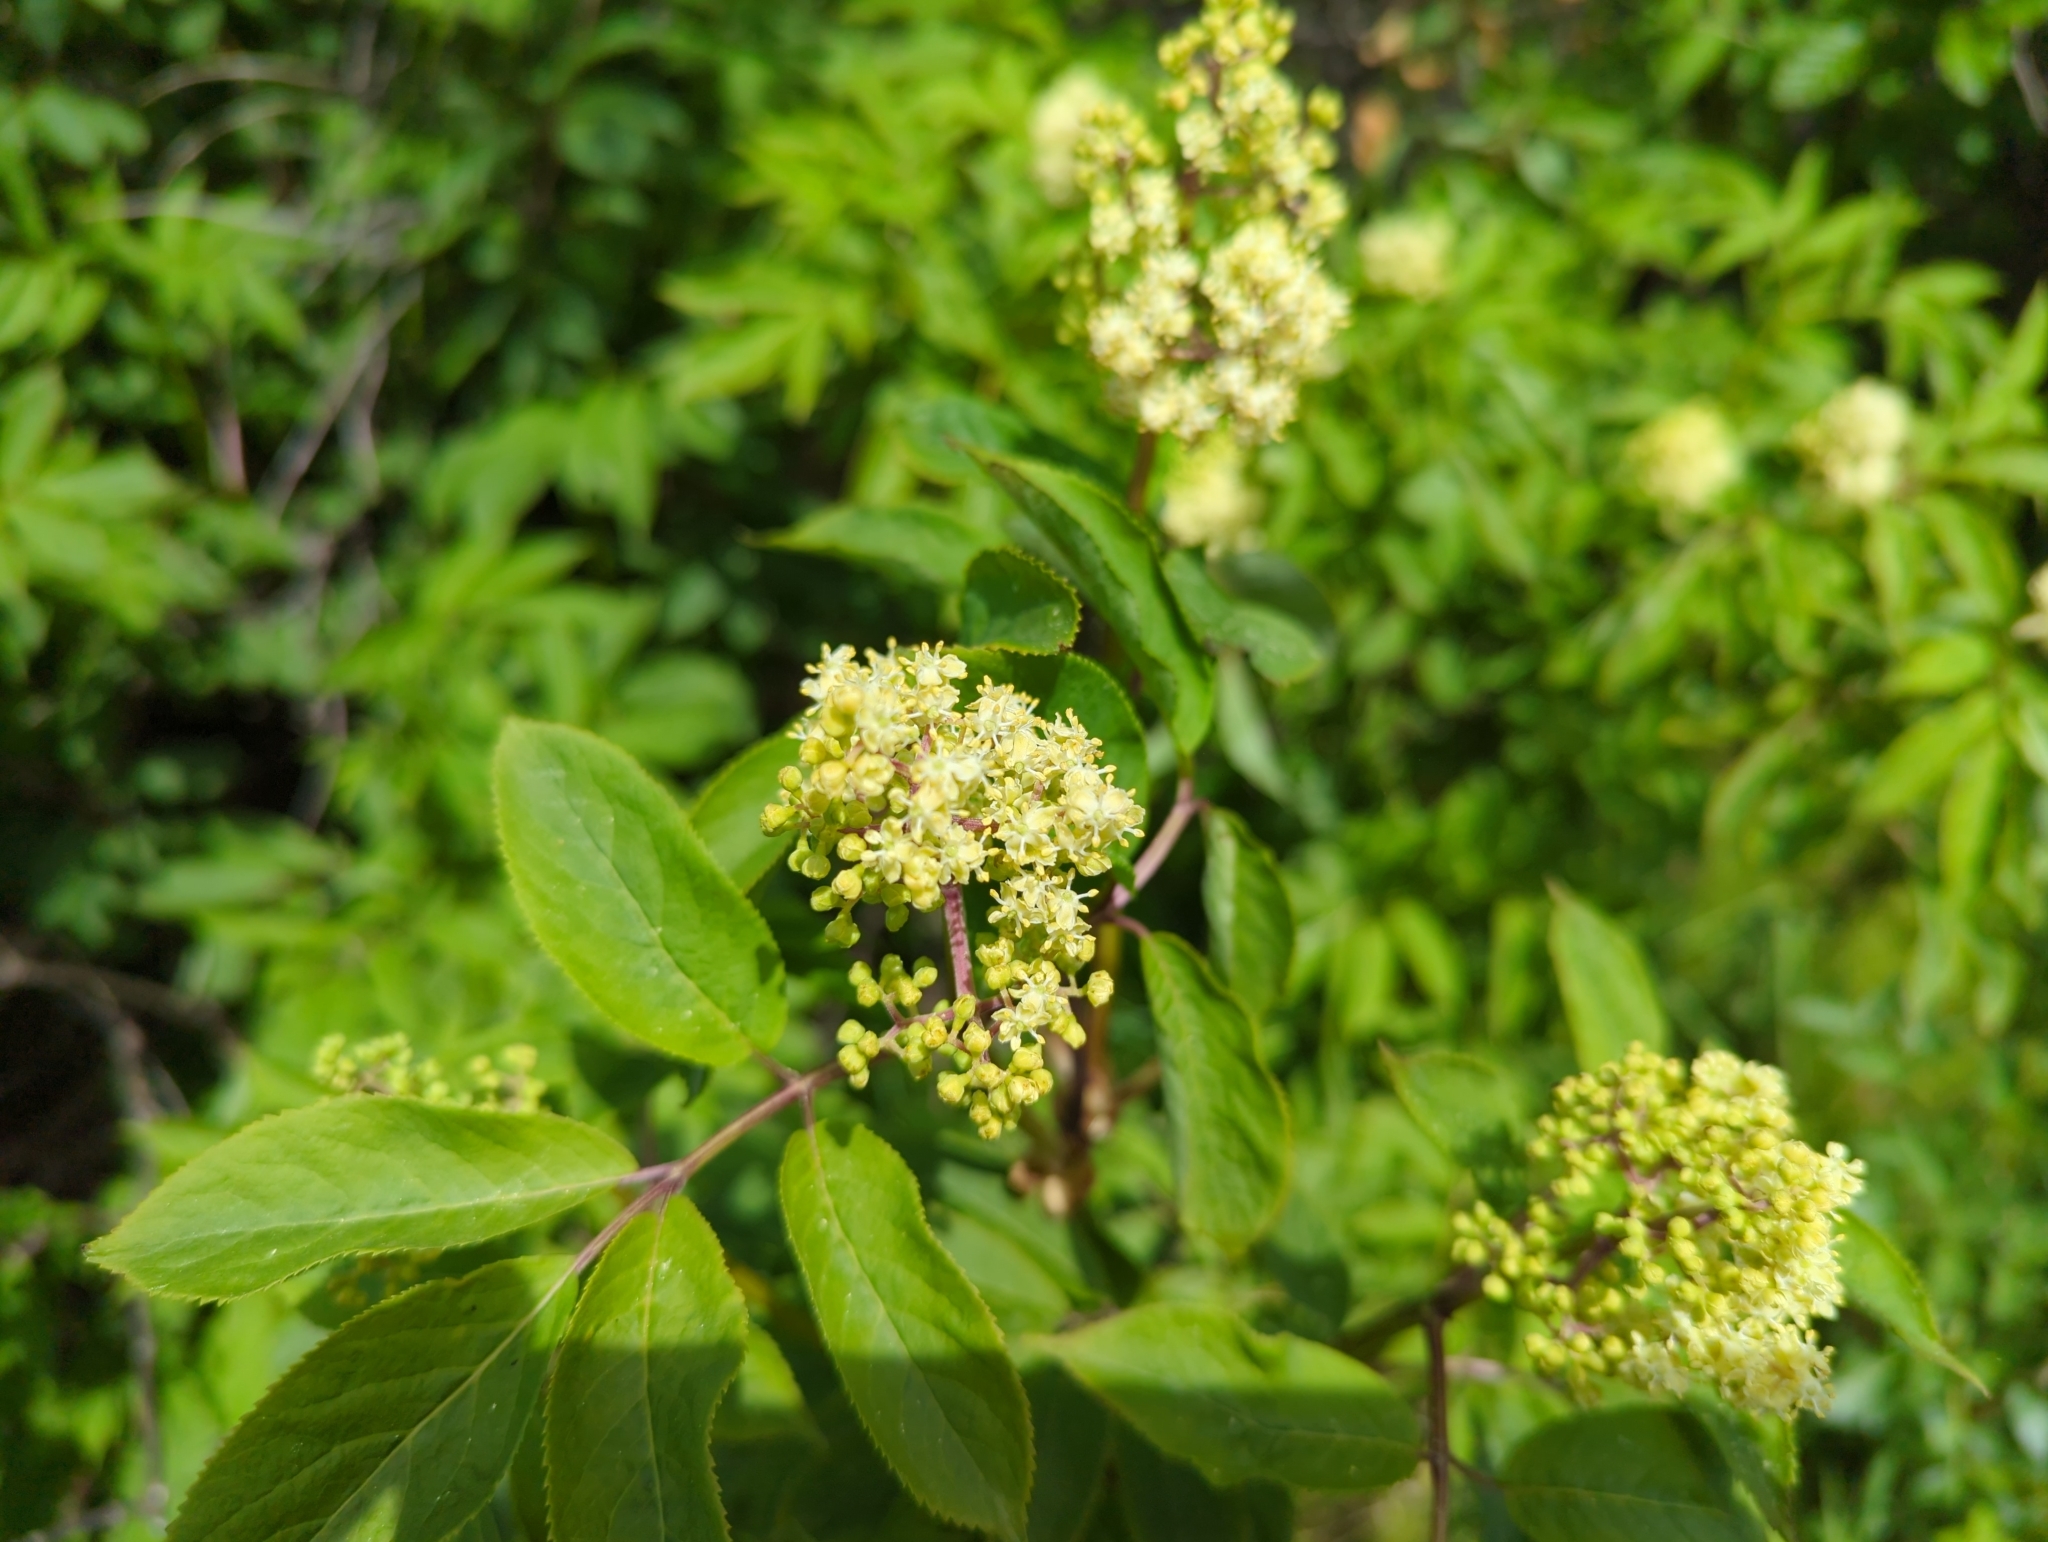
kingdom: Plantae
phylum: Tracheophyta
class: Magnoliopsida
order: Dipsacales
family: Viburnaceae
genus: Sambucus
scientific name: Sambucus racemosa
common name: Red-berried elder
